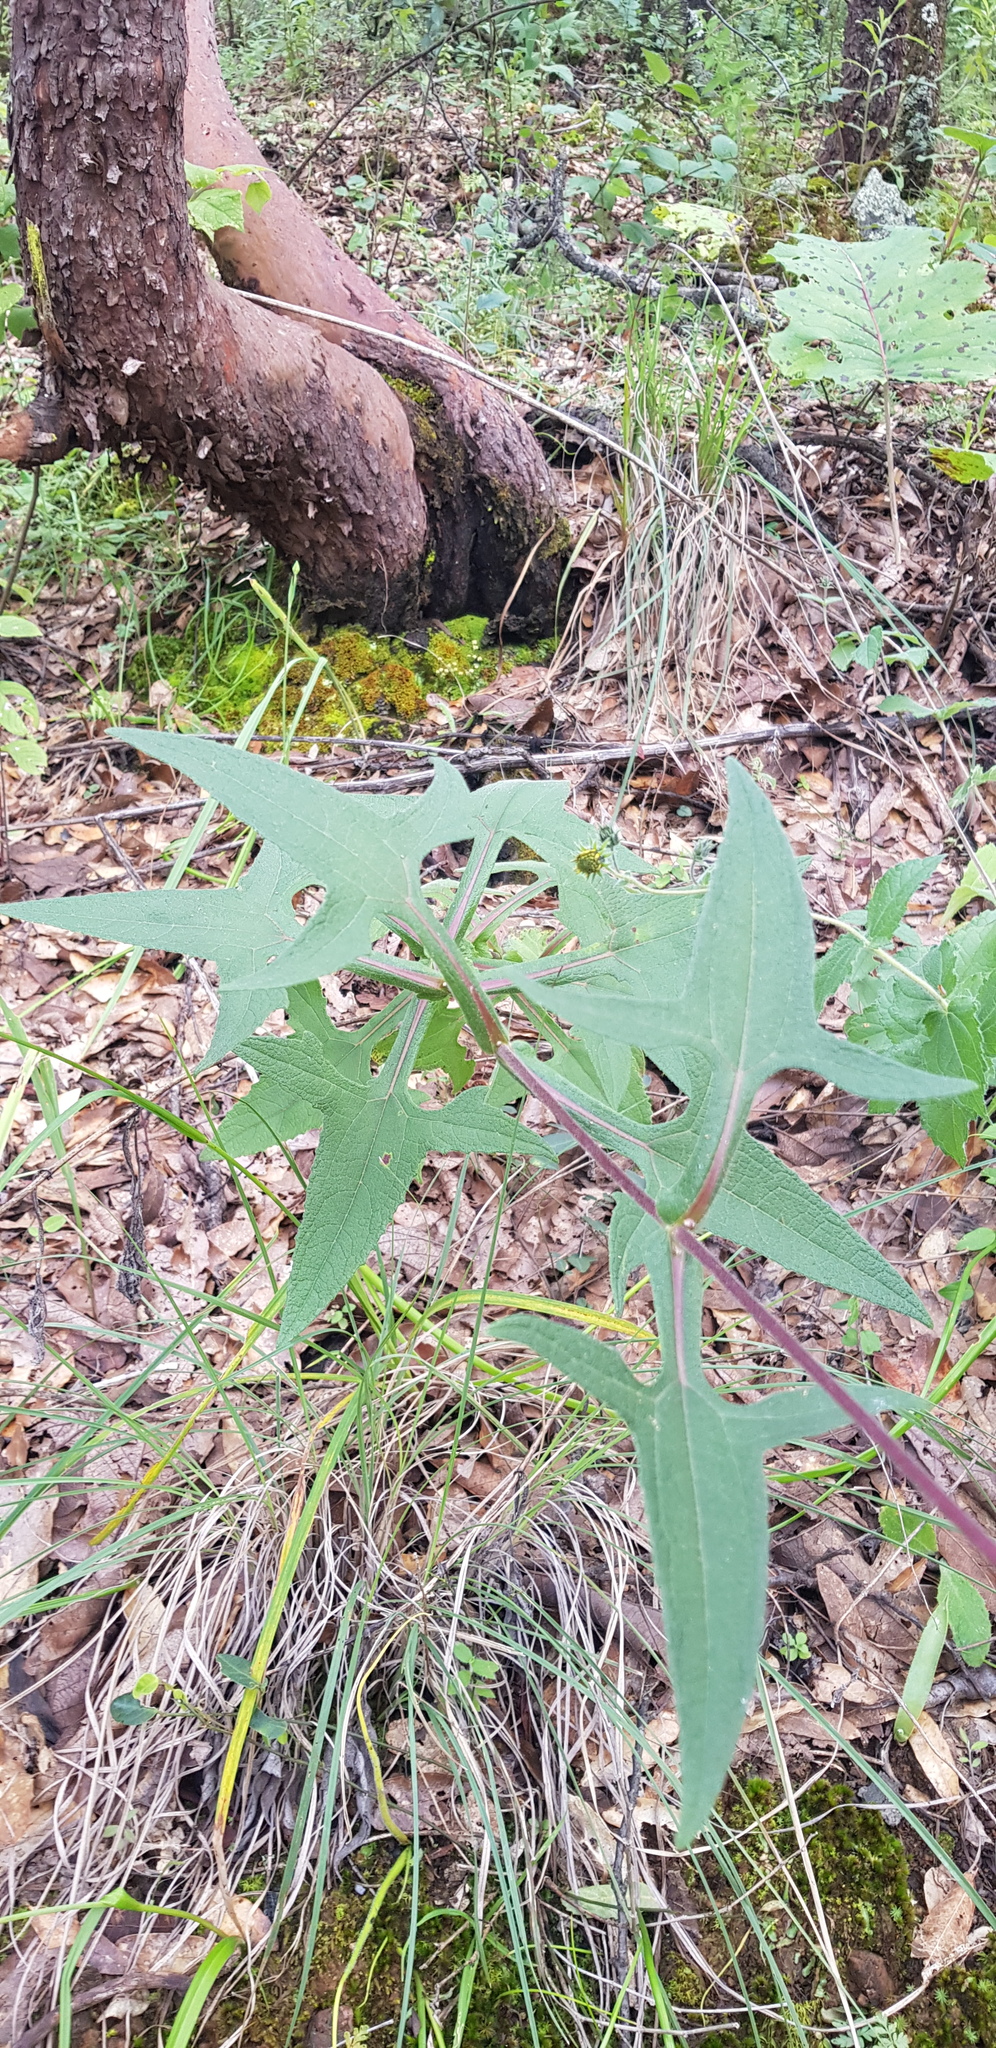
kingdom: Plantae
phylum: Tracheophyta
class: Magnoliopsida
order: Asterales
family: Asteraceae
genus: Axiniphyllum
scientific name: Axiniphyllum scabrum
